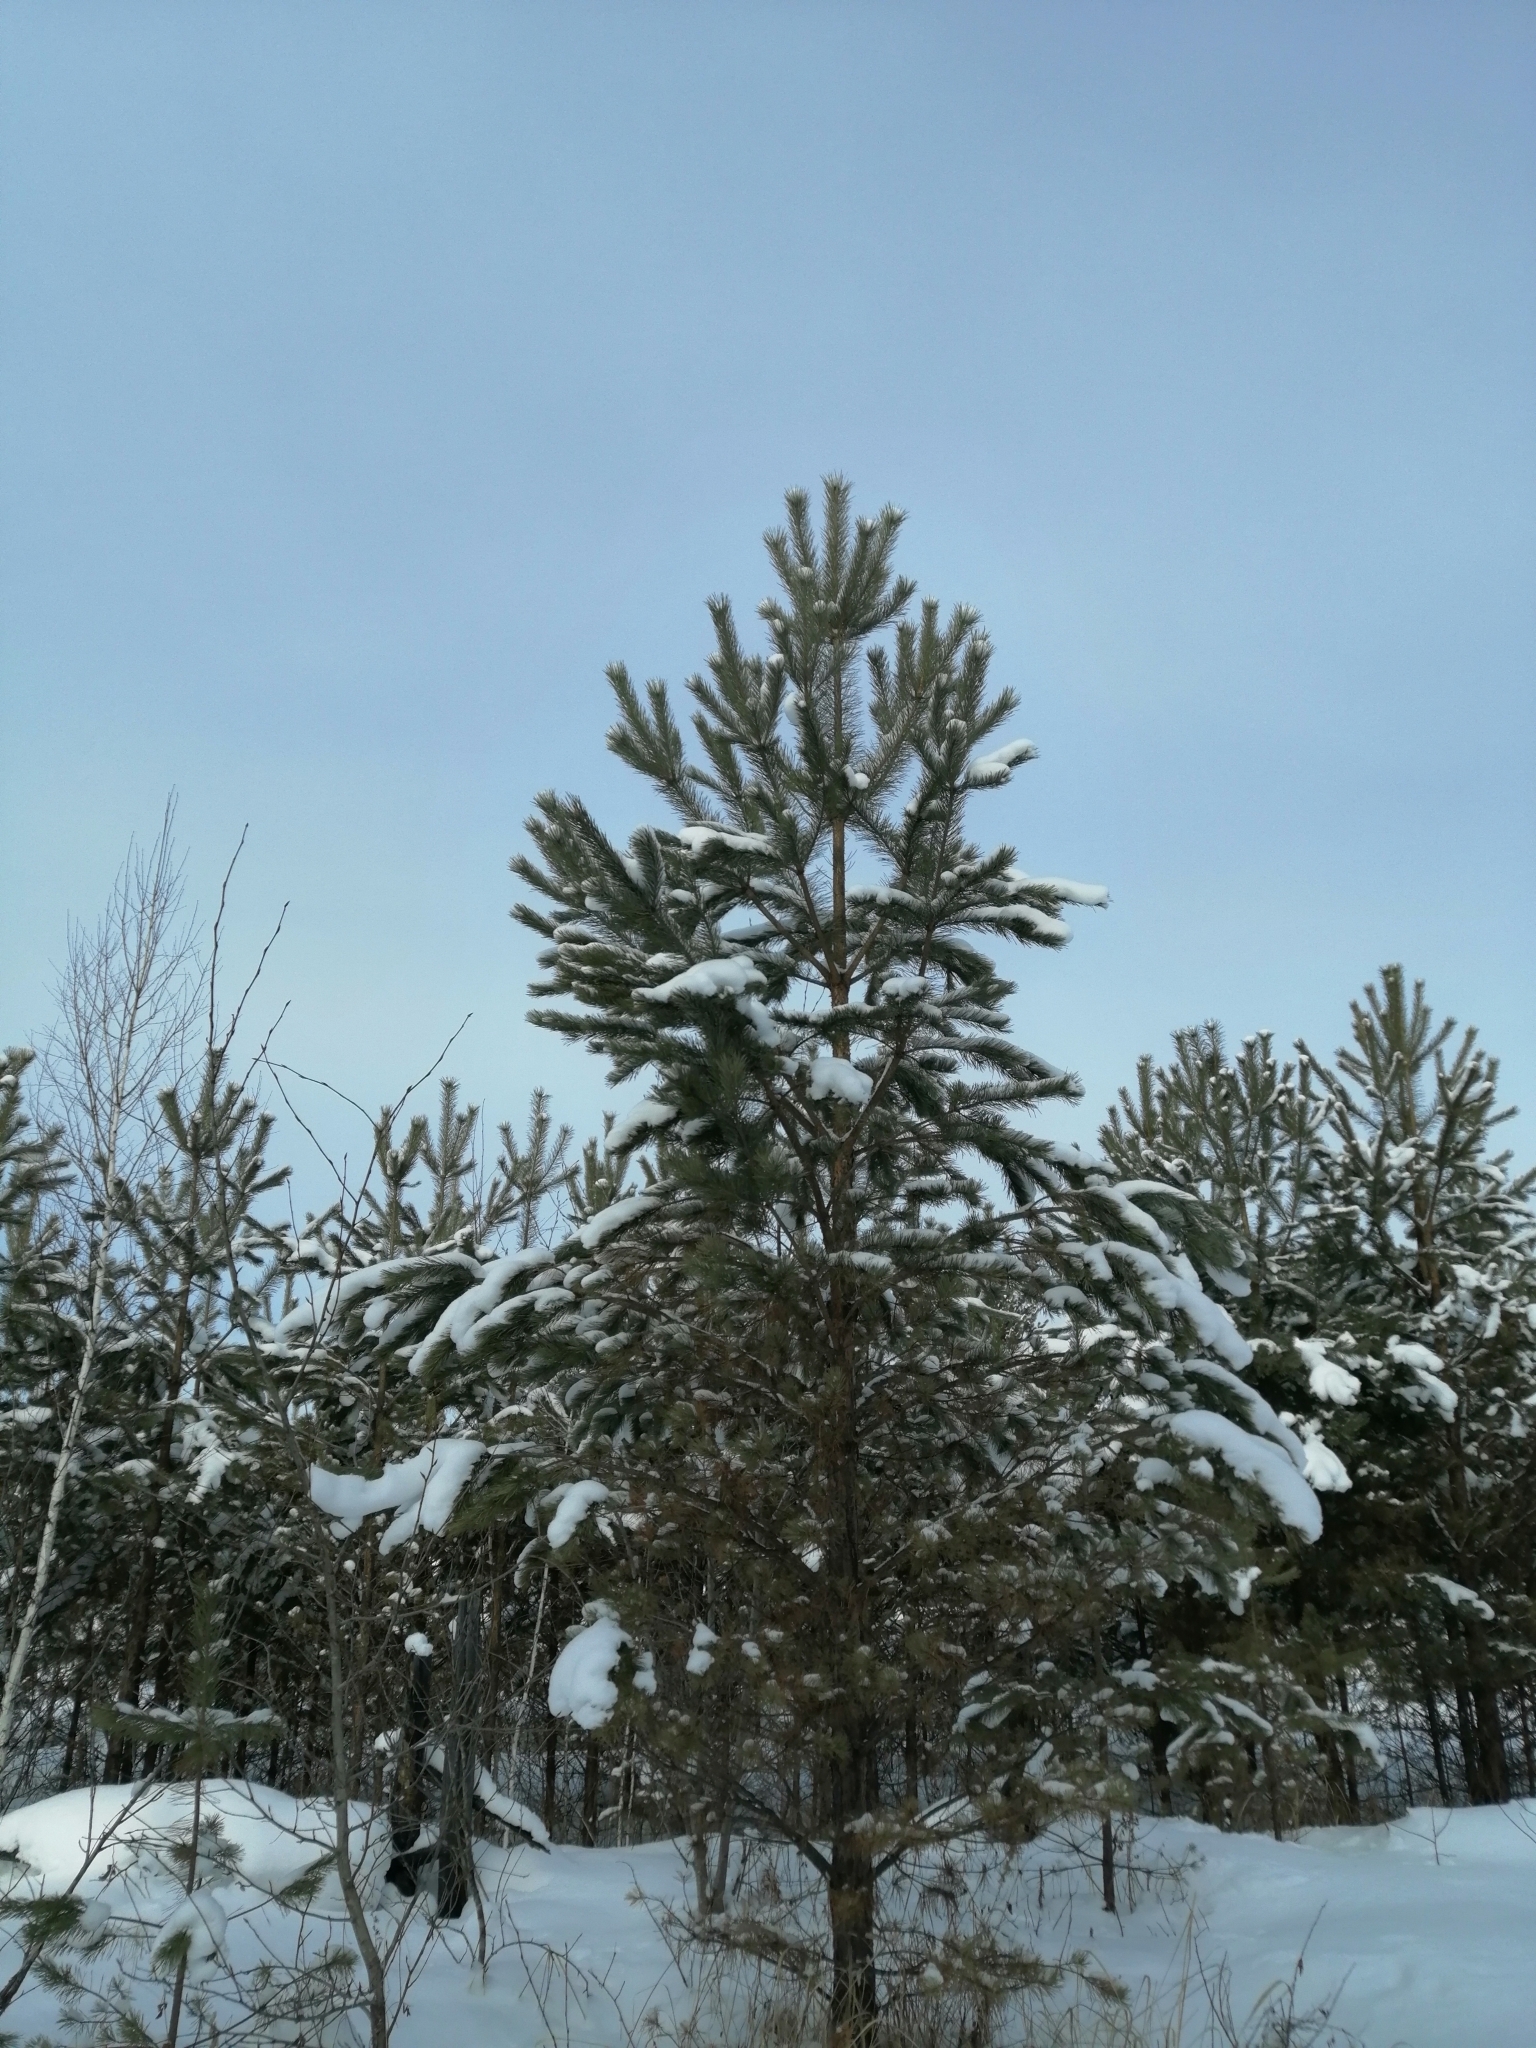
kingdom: Plantae
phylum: Tracheophyta
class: Pinopsida
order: Pinales
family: Pinaceae
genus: Pinus
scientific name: Pinus sylvestris
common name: Scots pine
